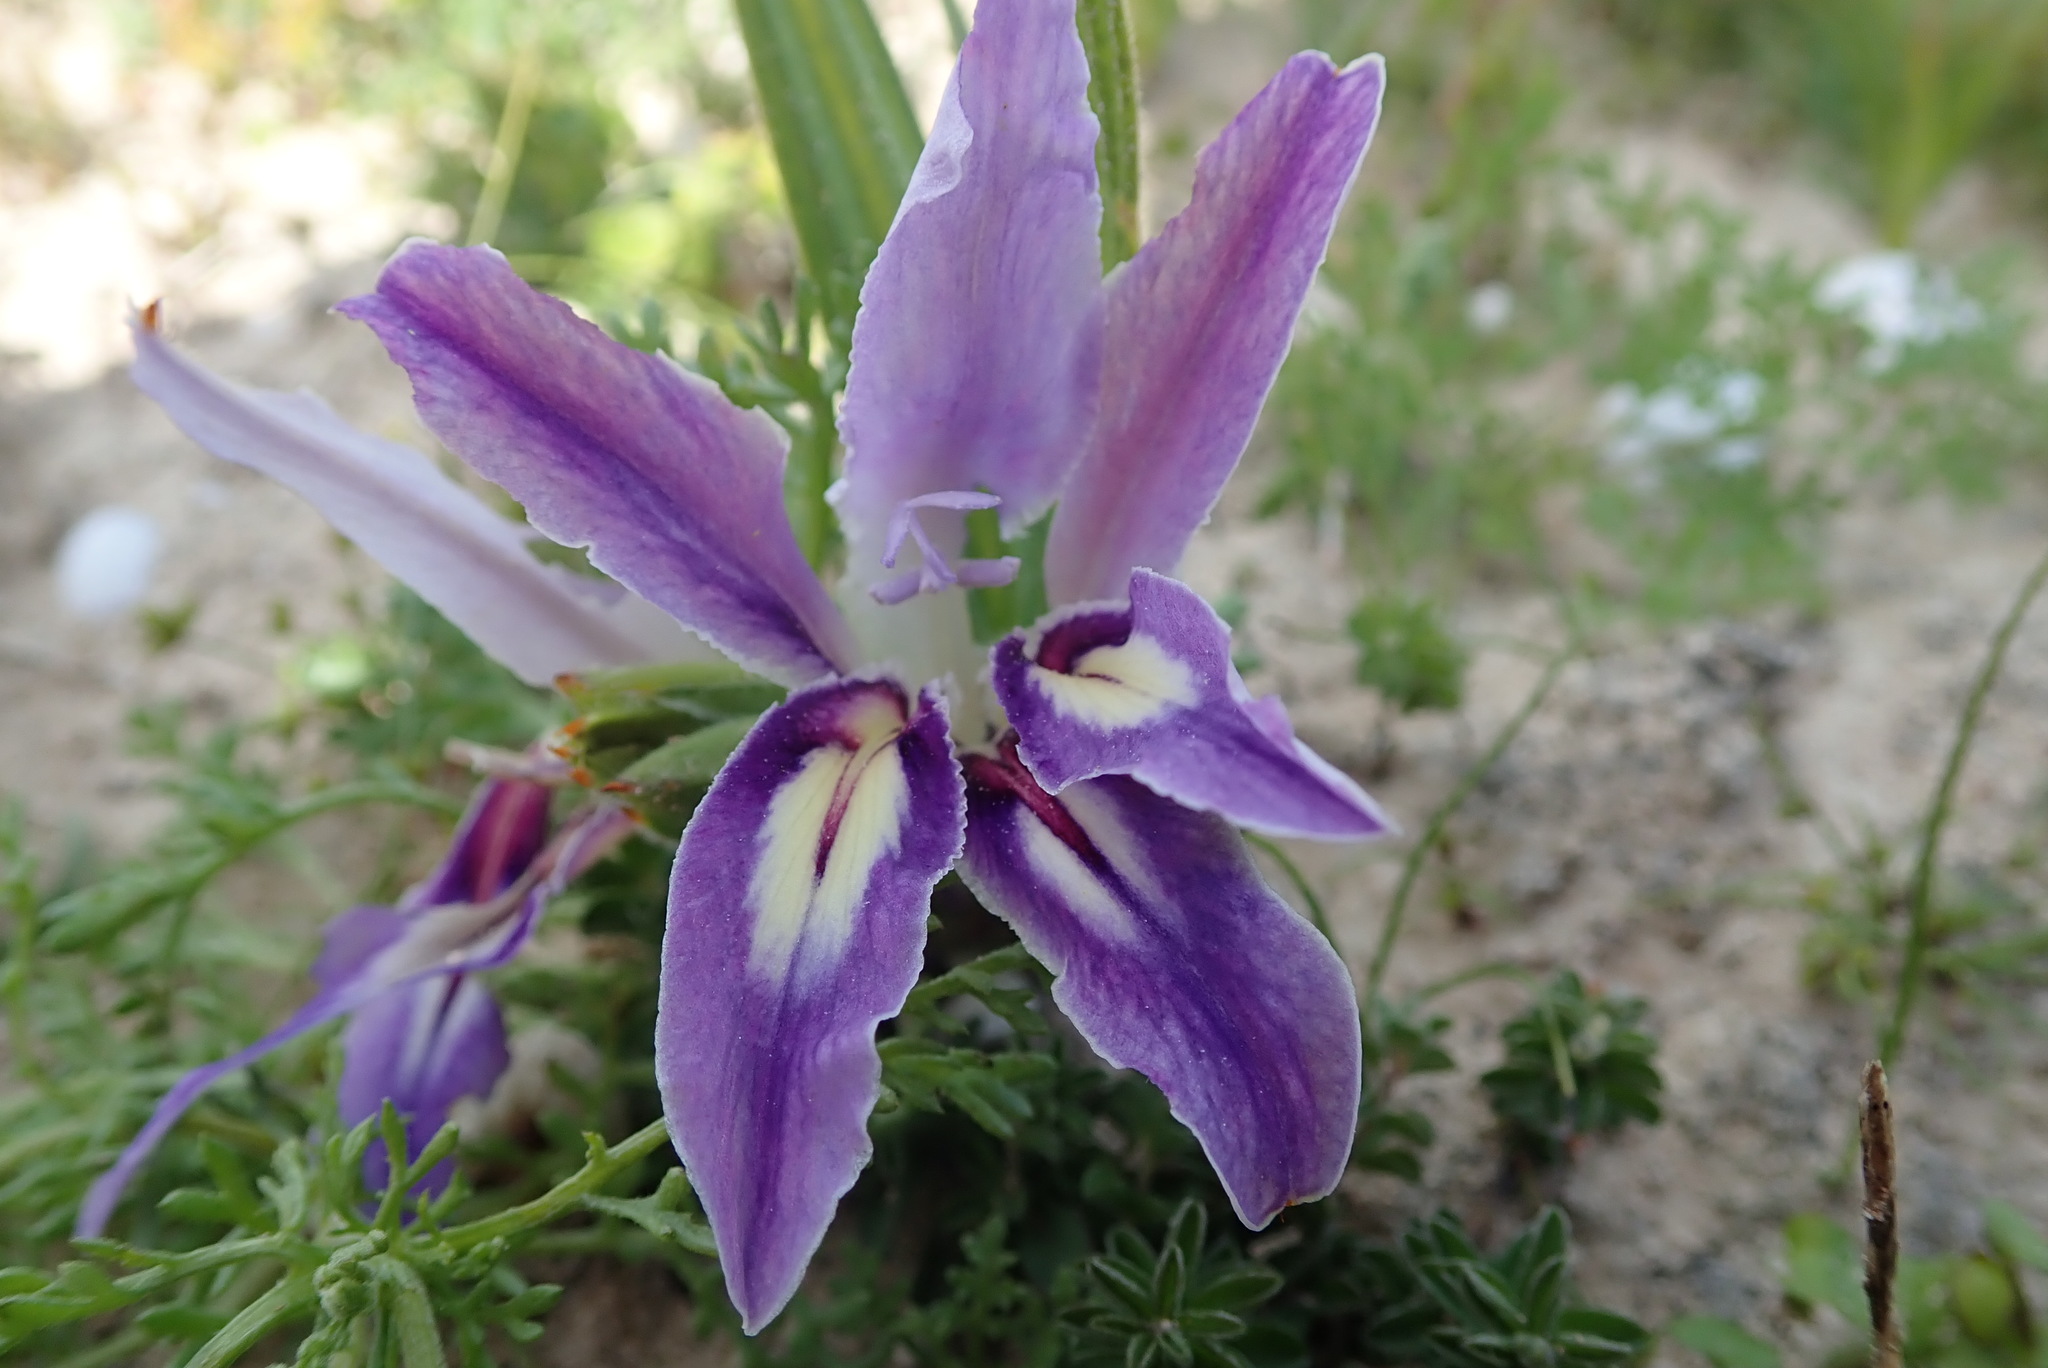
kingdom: Plantae
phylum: Tracheophyta
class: Liliopsida
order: Asparagales
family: Iridaceae
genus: Babiana
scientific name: Babiana ambigua
